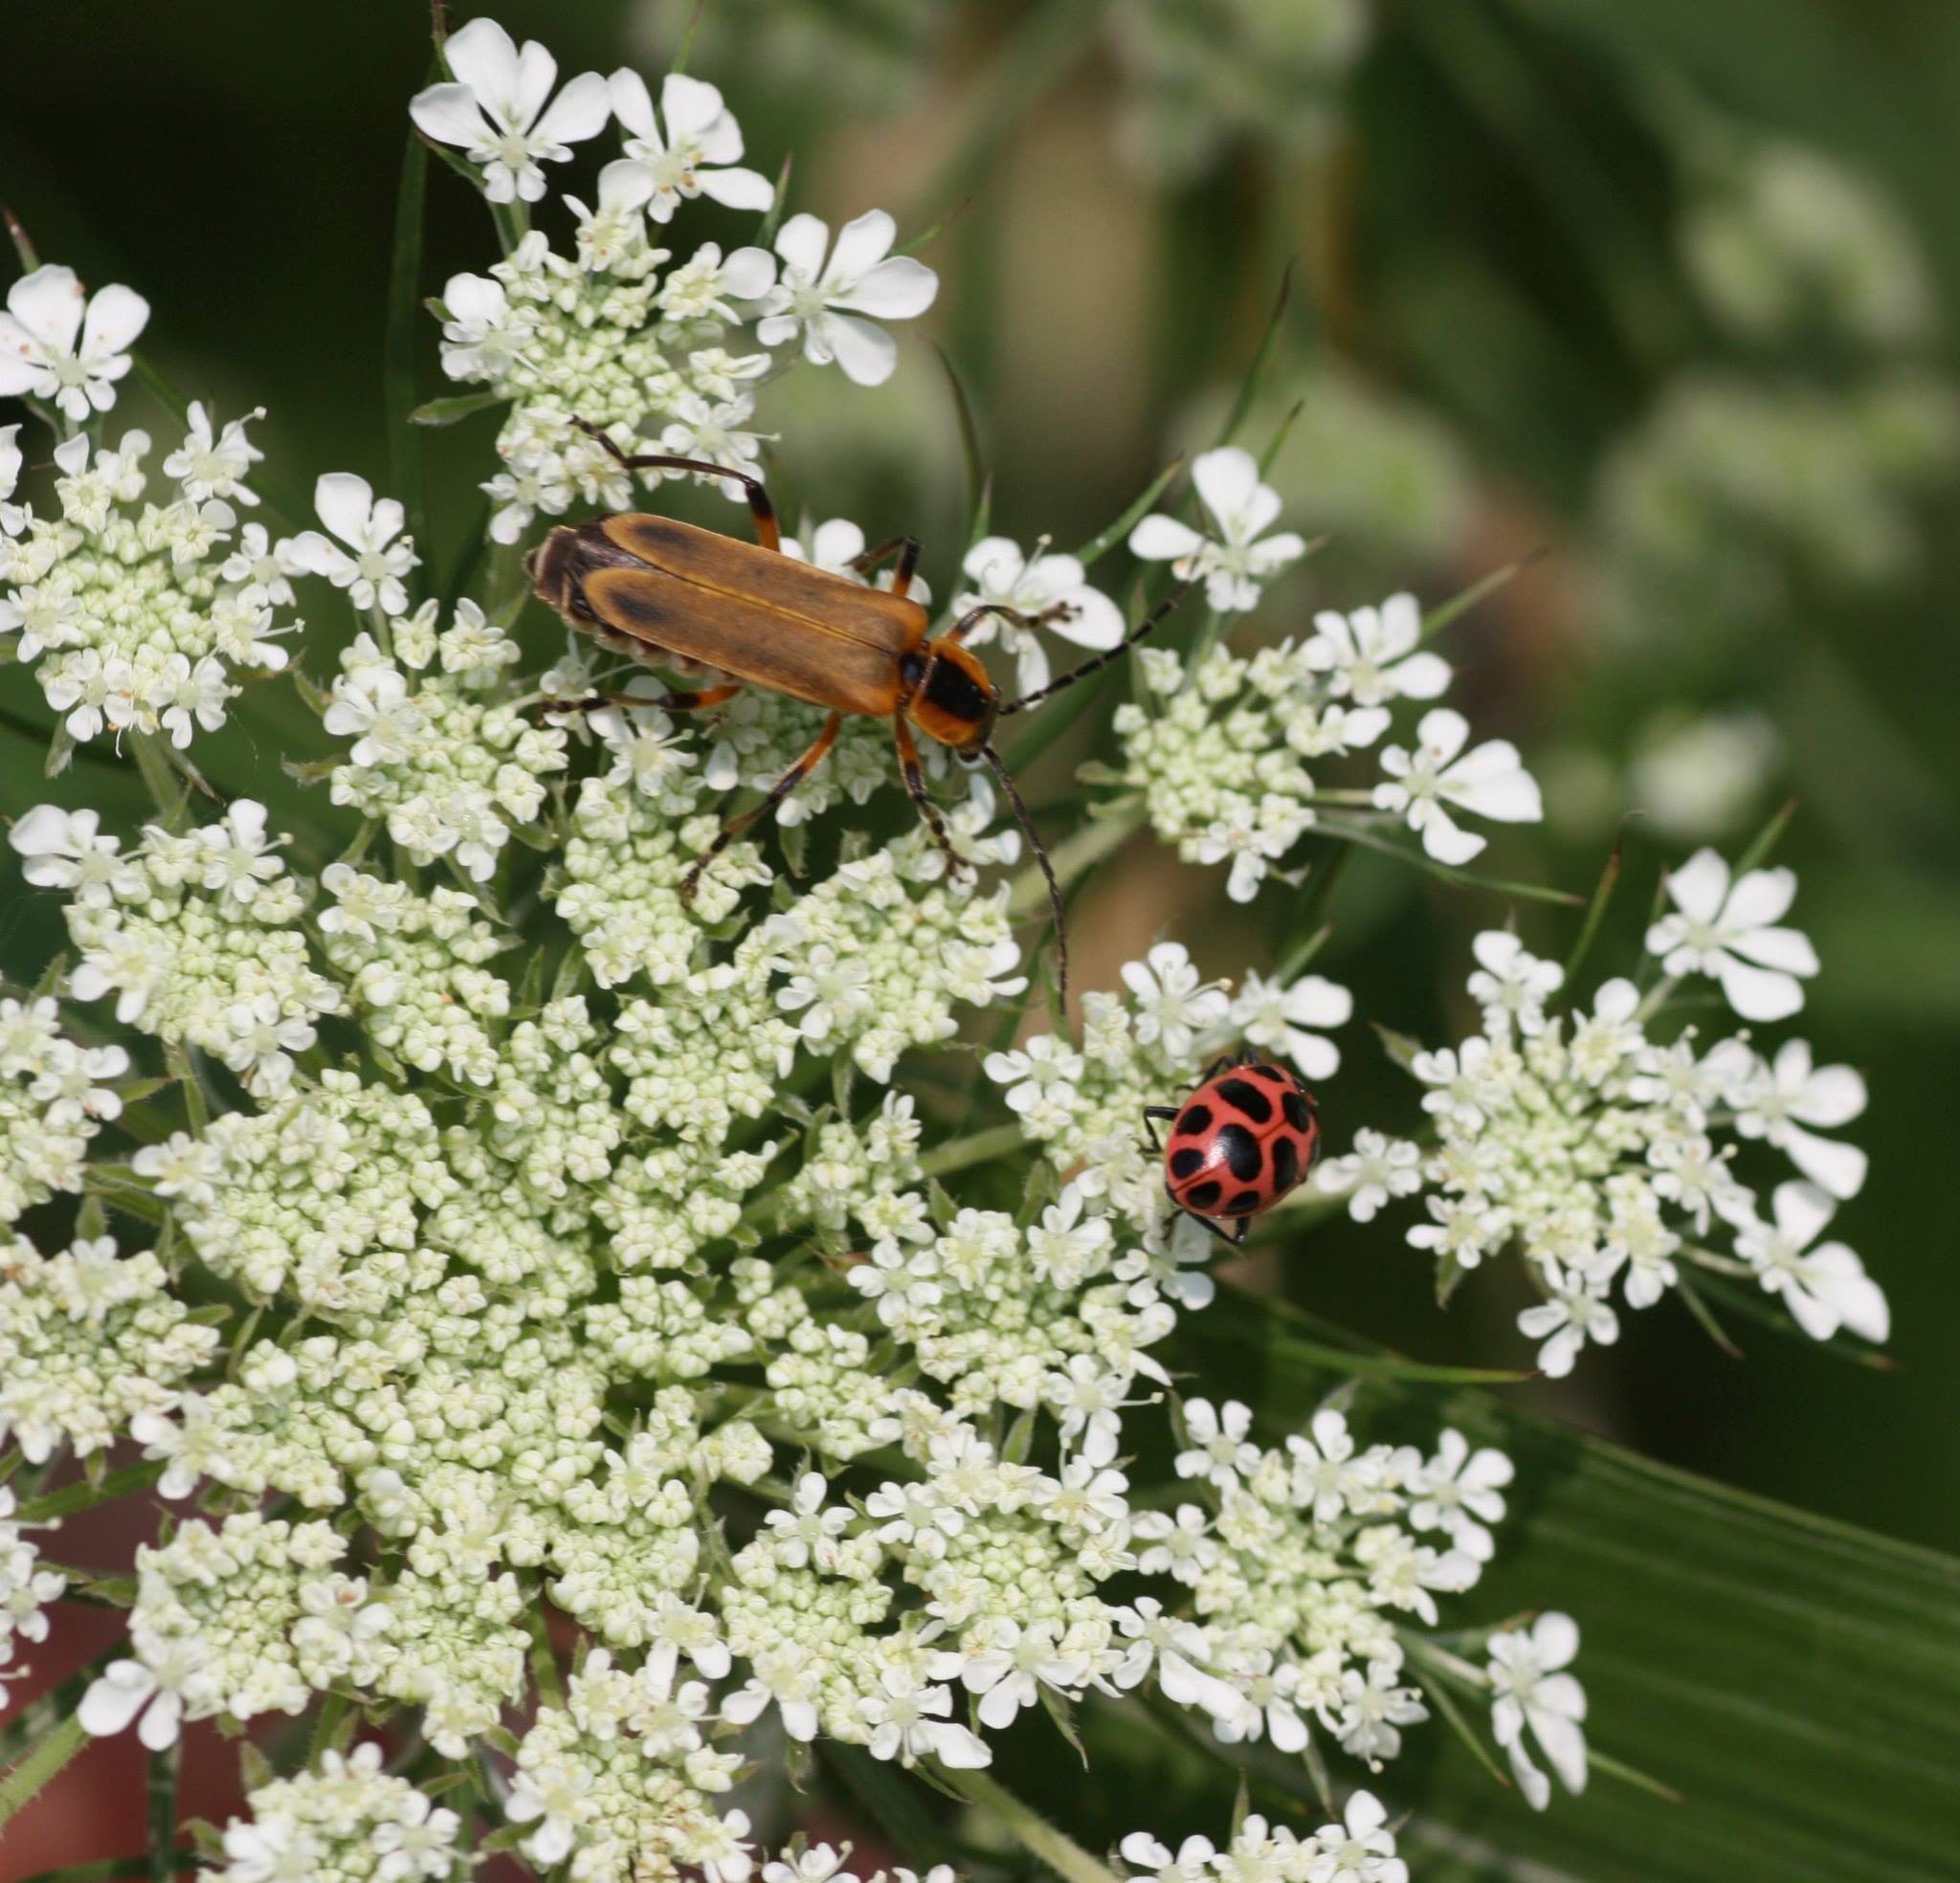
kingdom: Animalia
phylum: Arthropoda
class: Insecta
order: Coleoptera
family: Coccinellidae
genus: Coleomegilla
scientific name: Coleomegilla maculata
